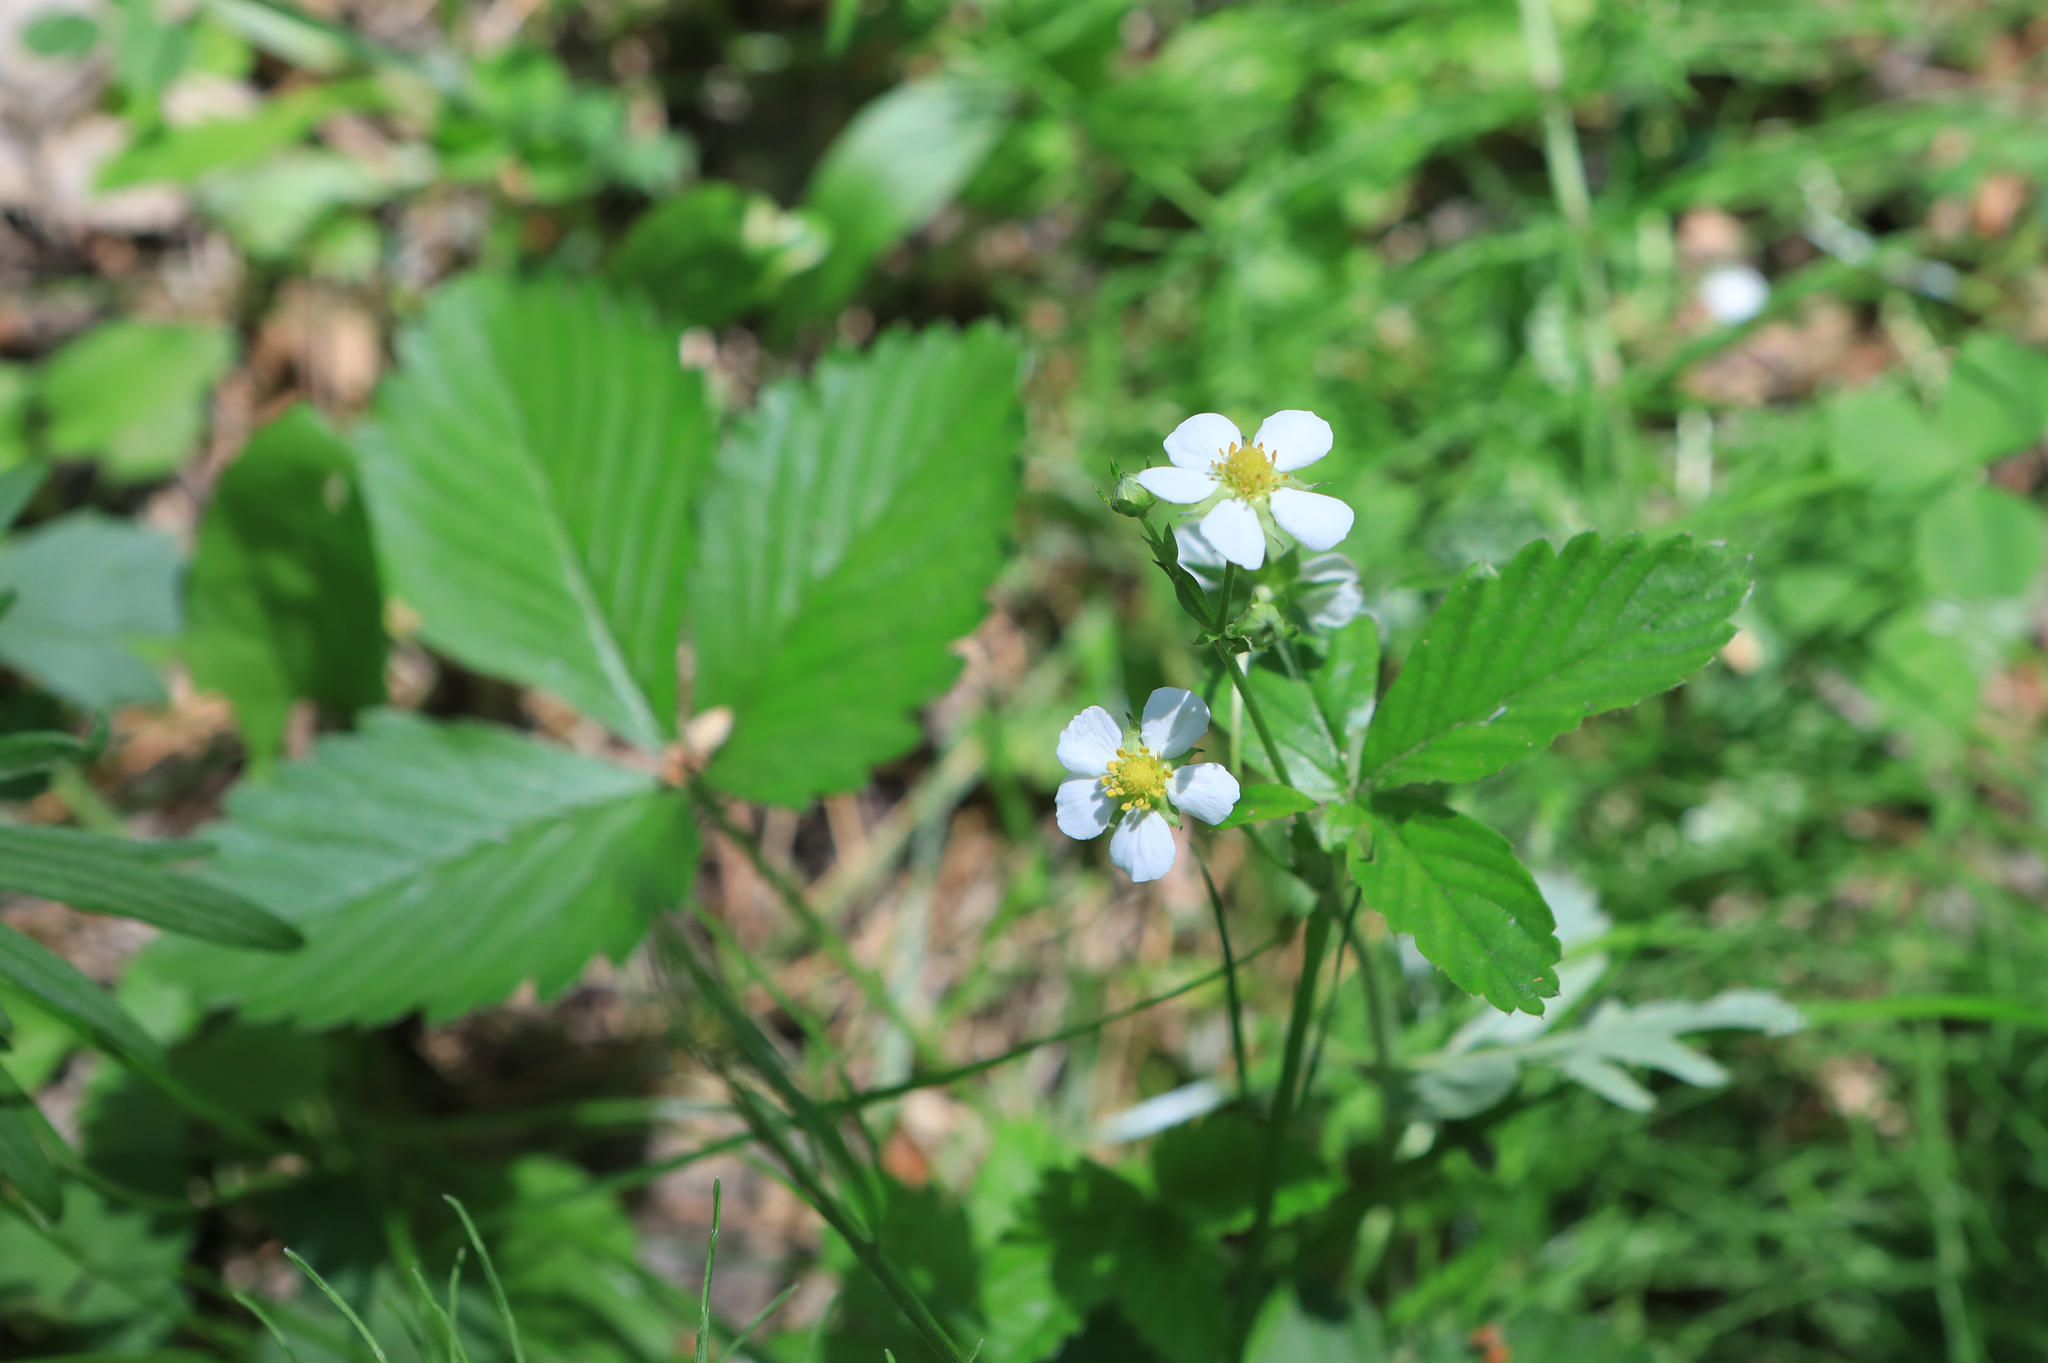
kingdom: Plantae
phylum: Tracheophyta
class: Magnoliopsida
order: Rosales
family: Rosaceae
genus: Fragaria
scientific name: Fragaria vesca
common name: Wild strawberry
